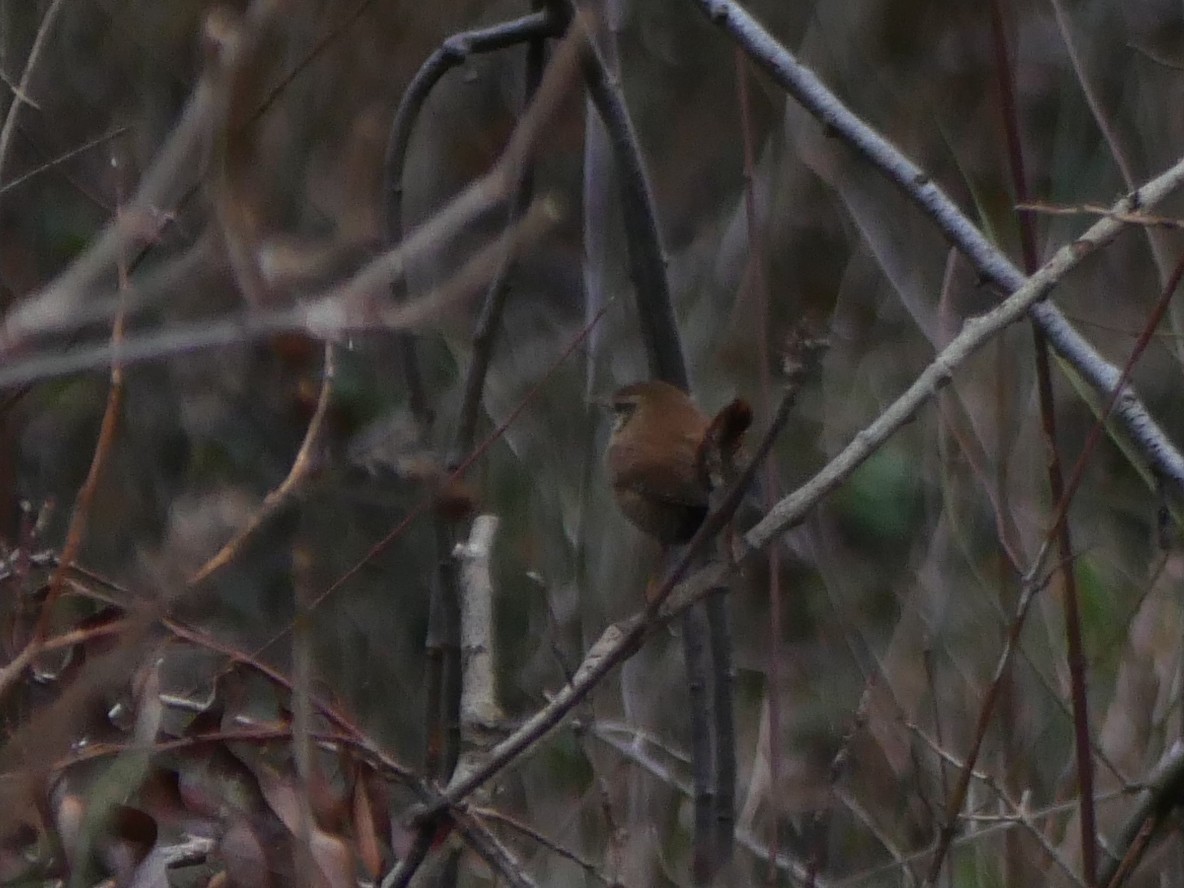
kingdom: Animalia
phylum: Chordata
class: Aves
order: Passeriformes
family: Troglodytidae
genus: Troglodytes
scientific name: Troglodytes troglodytes
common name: Eurasian wren
